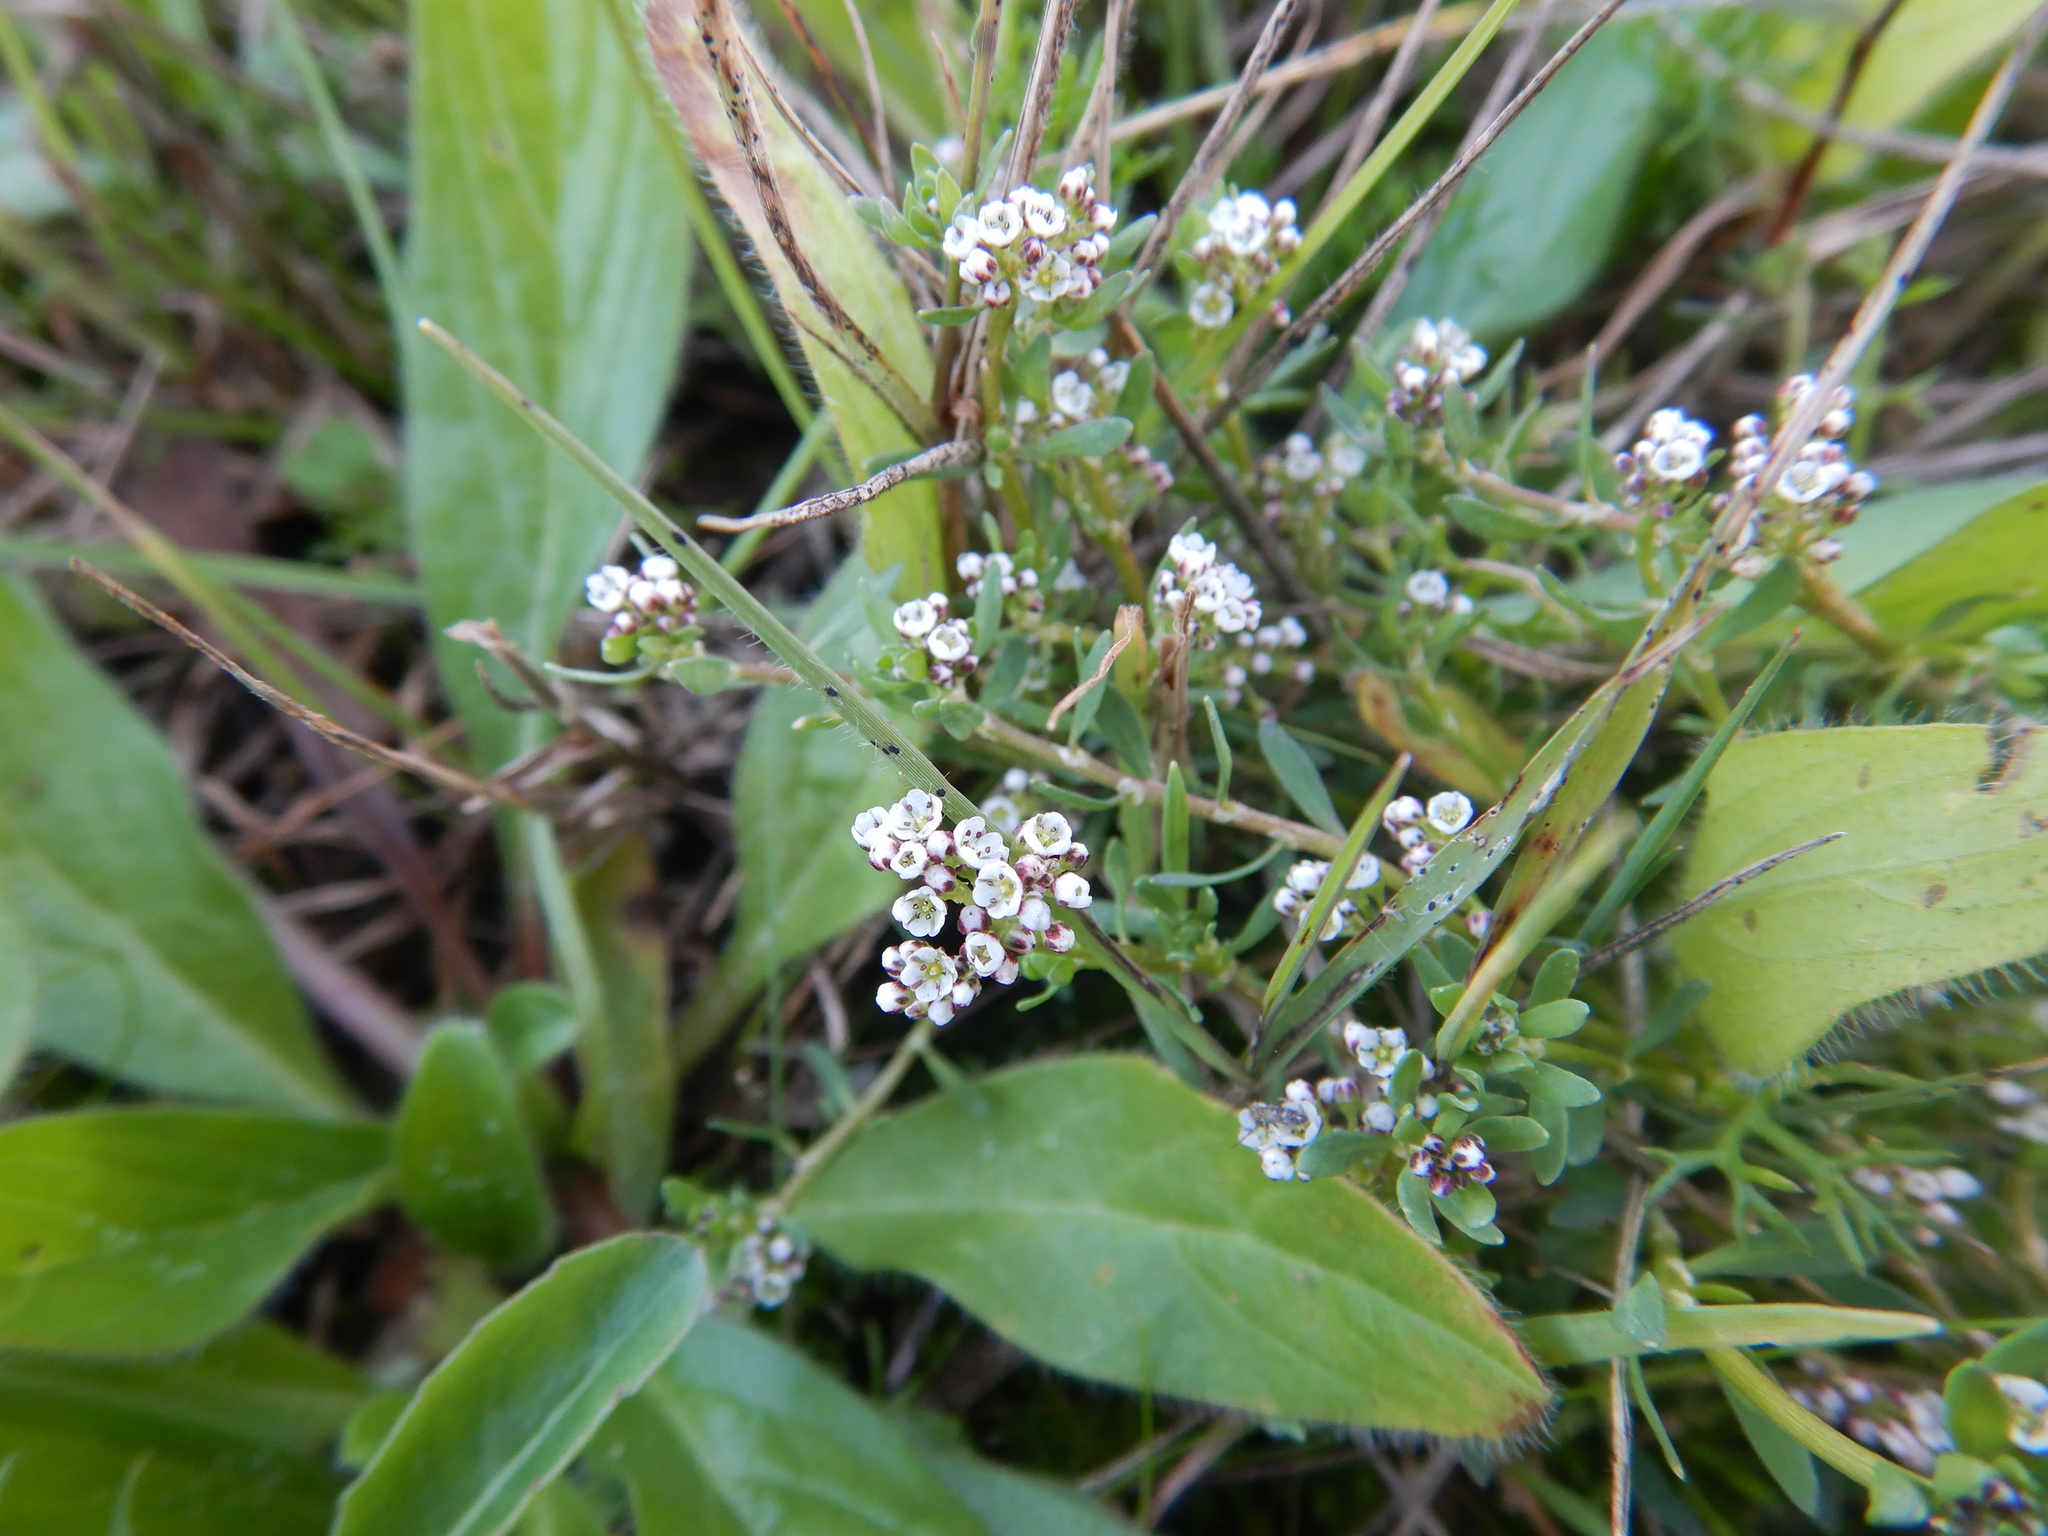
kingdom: Plantae
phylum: Tracheophyta
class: Magnoliopsida
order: Caryophyllales
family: Caryophyllaceae
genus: Corrigiola
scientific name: Corrigiola litoralis
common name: Strapwort
